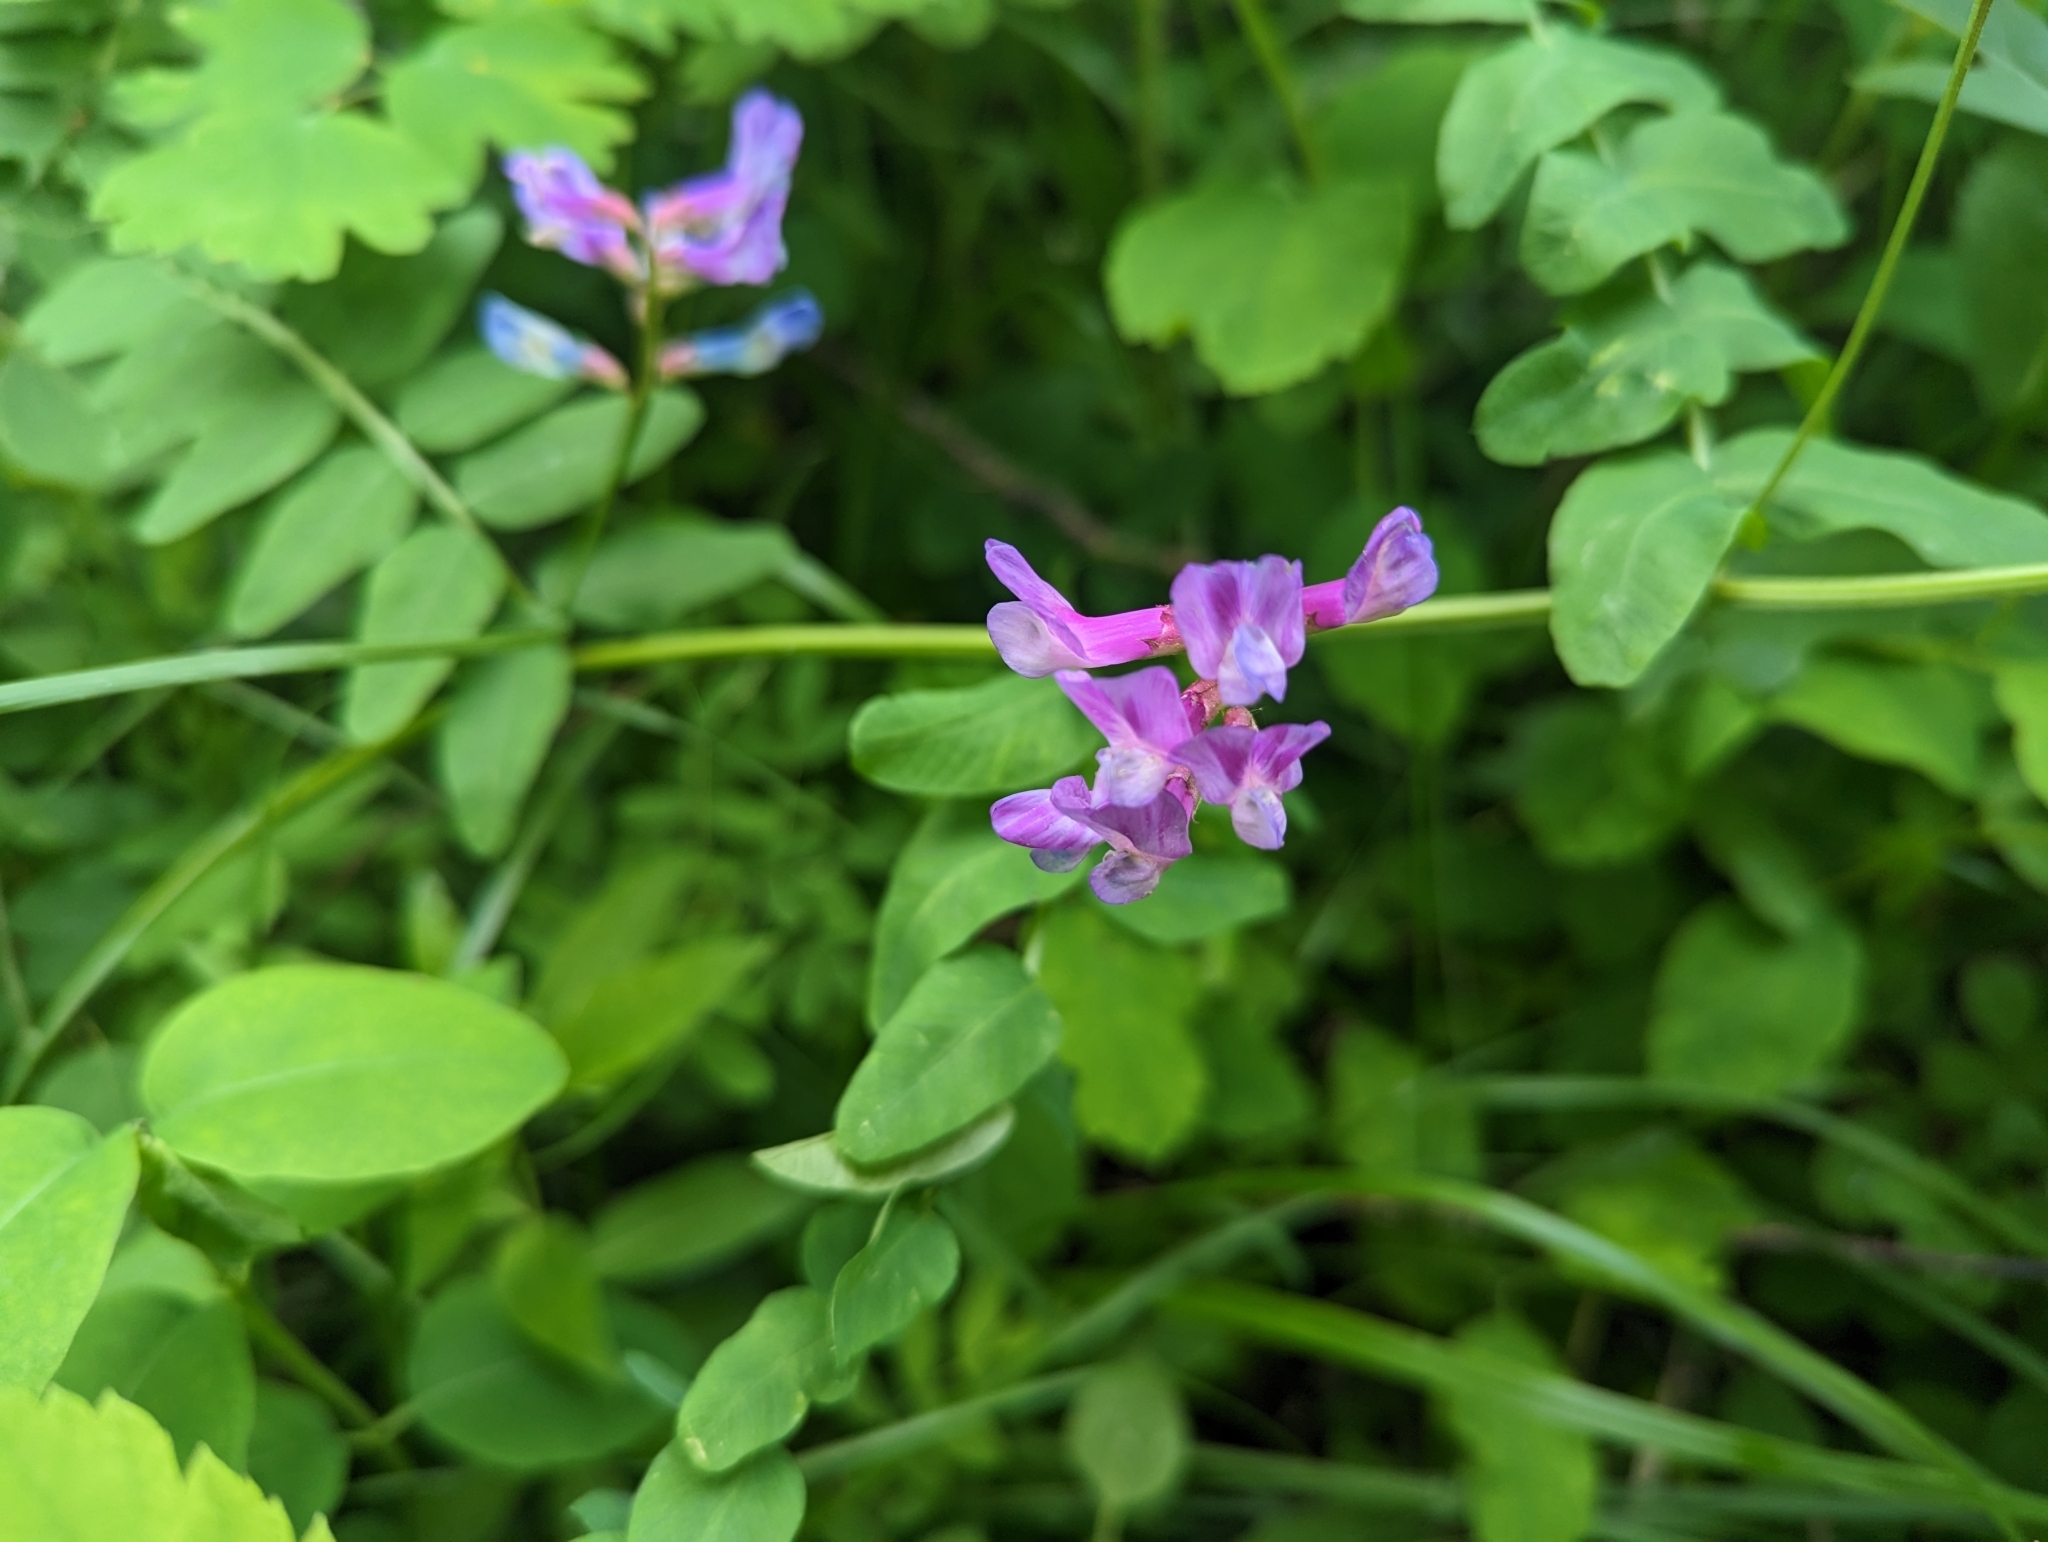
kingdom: Plantae
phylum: Tracheophyta
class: Magnoliopsida
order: Fabales
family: Fabaceae
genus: Vicia
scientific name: Vicia americana
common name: American vetch
